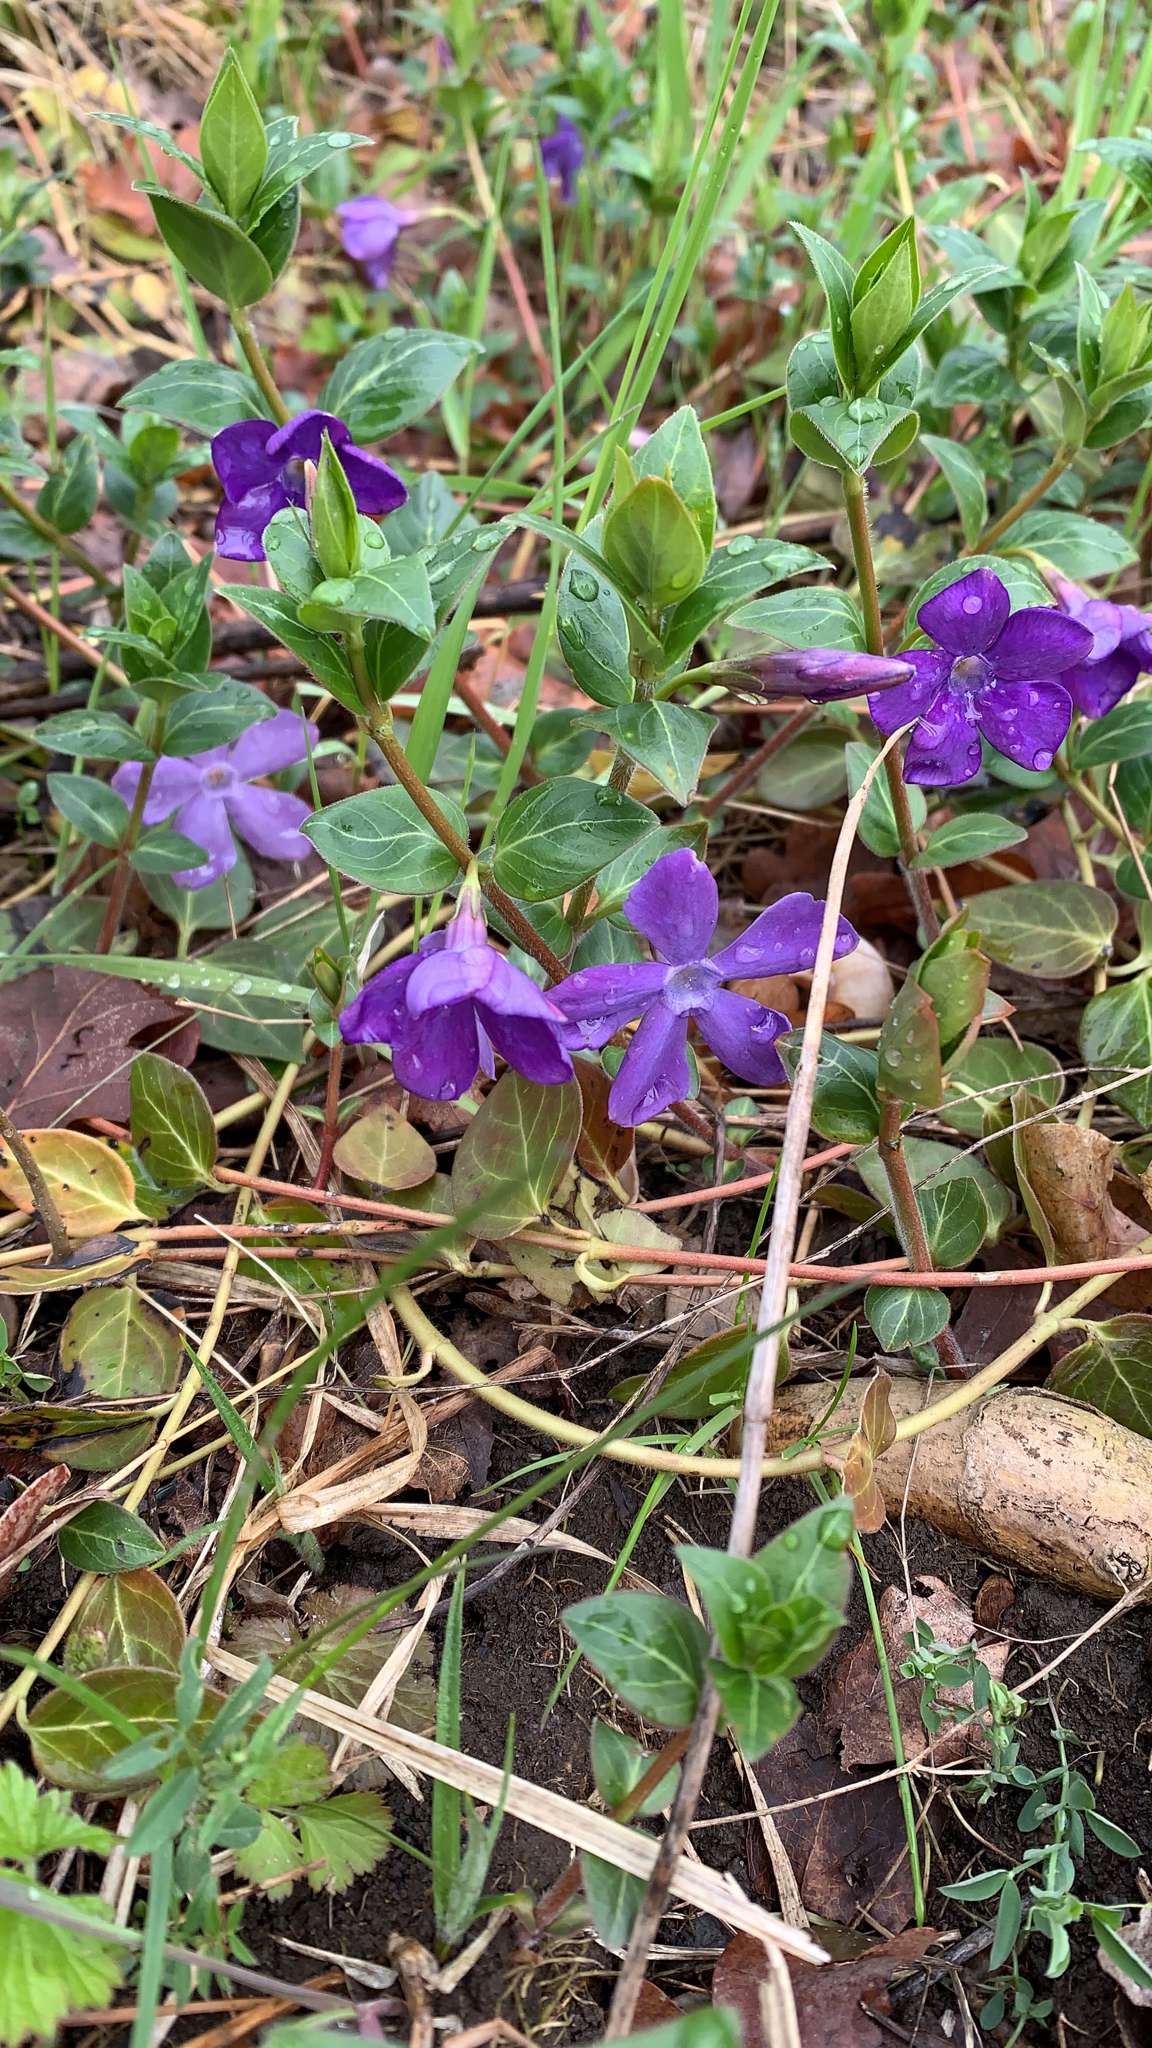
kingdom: Plantae
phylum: Tracheophyta
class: Magnoliopsida
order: Gentianales
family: Apocynaceae
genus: Vinca
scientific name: Vinca major
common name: Greater periwinkle
